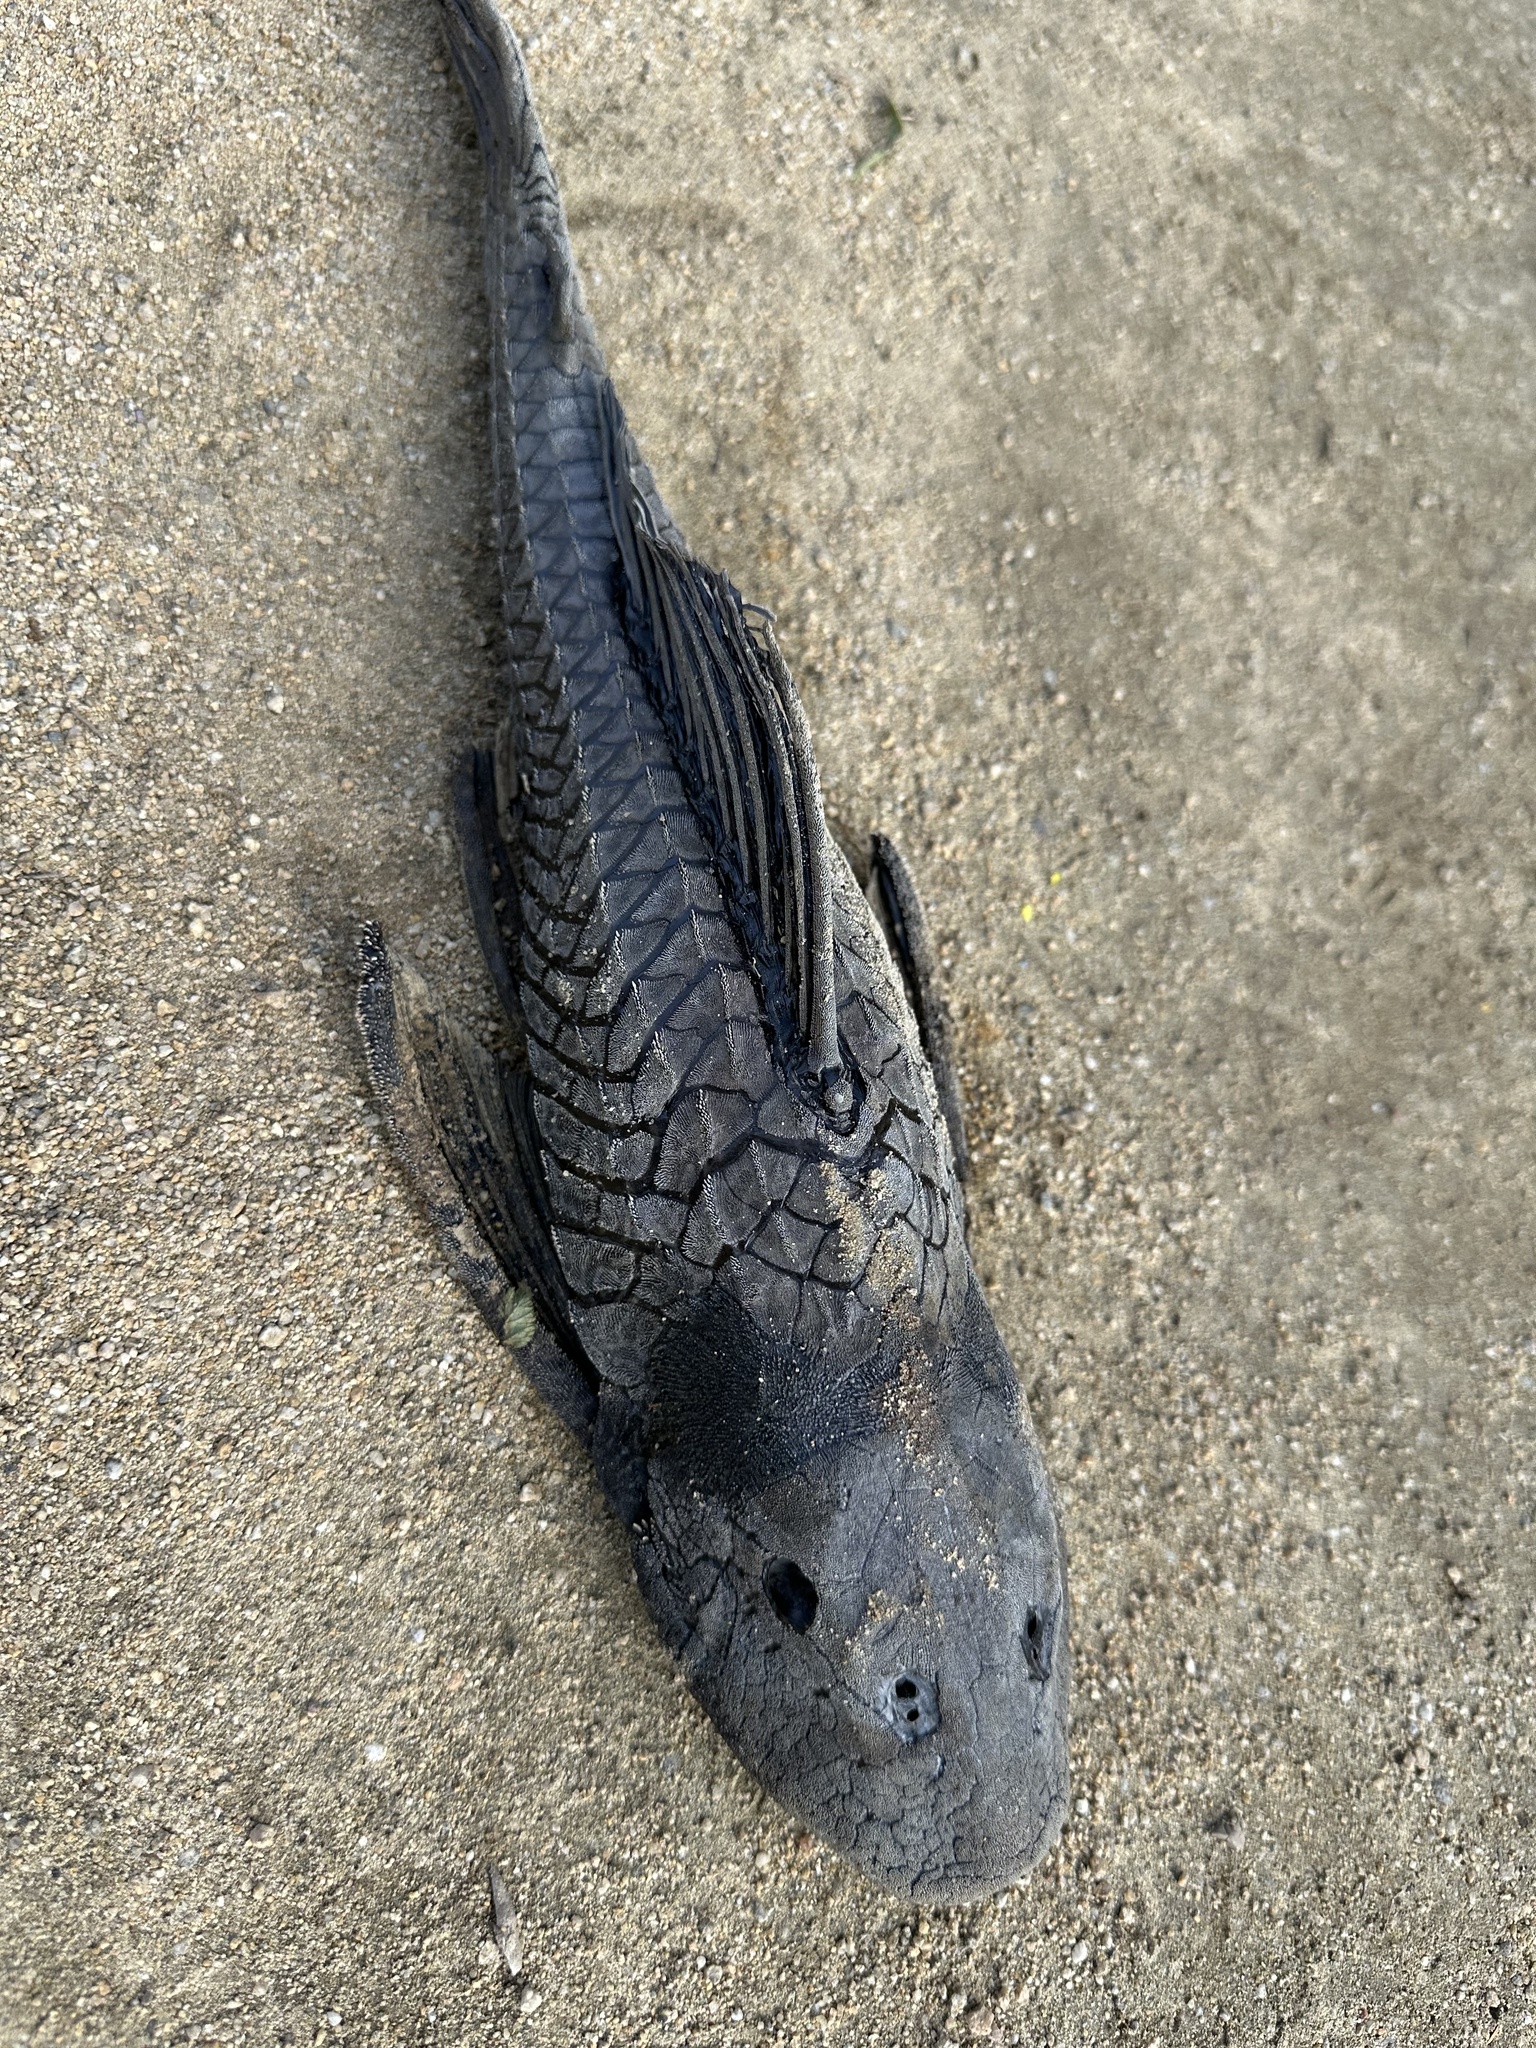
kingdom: Animalia
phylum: Chordata
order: Siluriformes
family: Loricariidae
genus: Pterygoplichthys
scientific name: Pterygoplichthys
